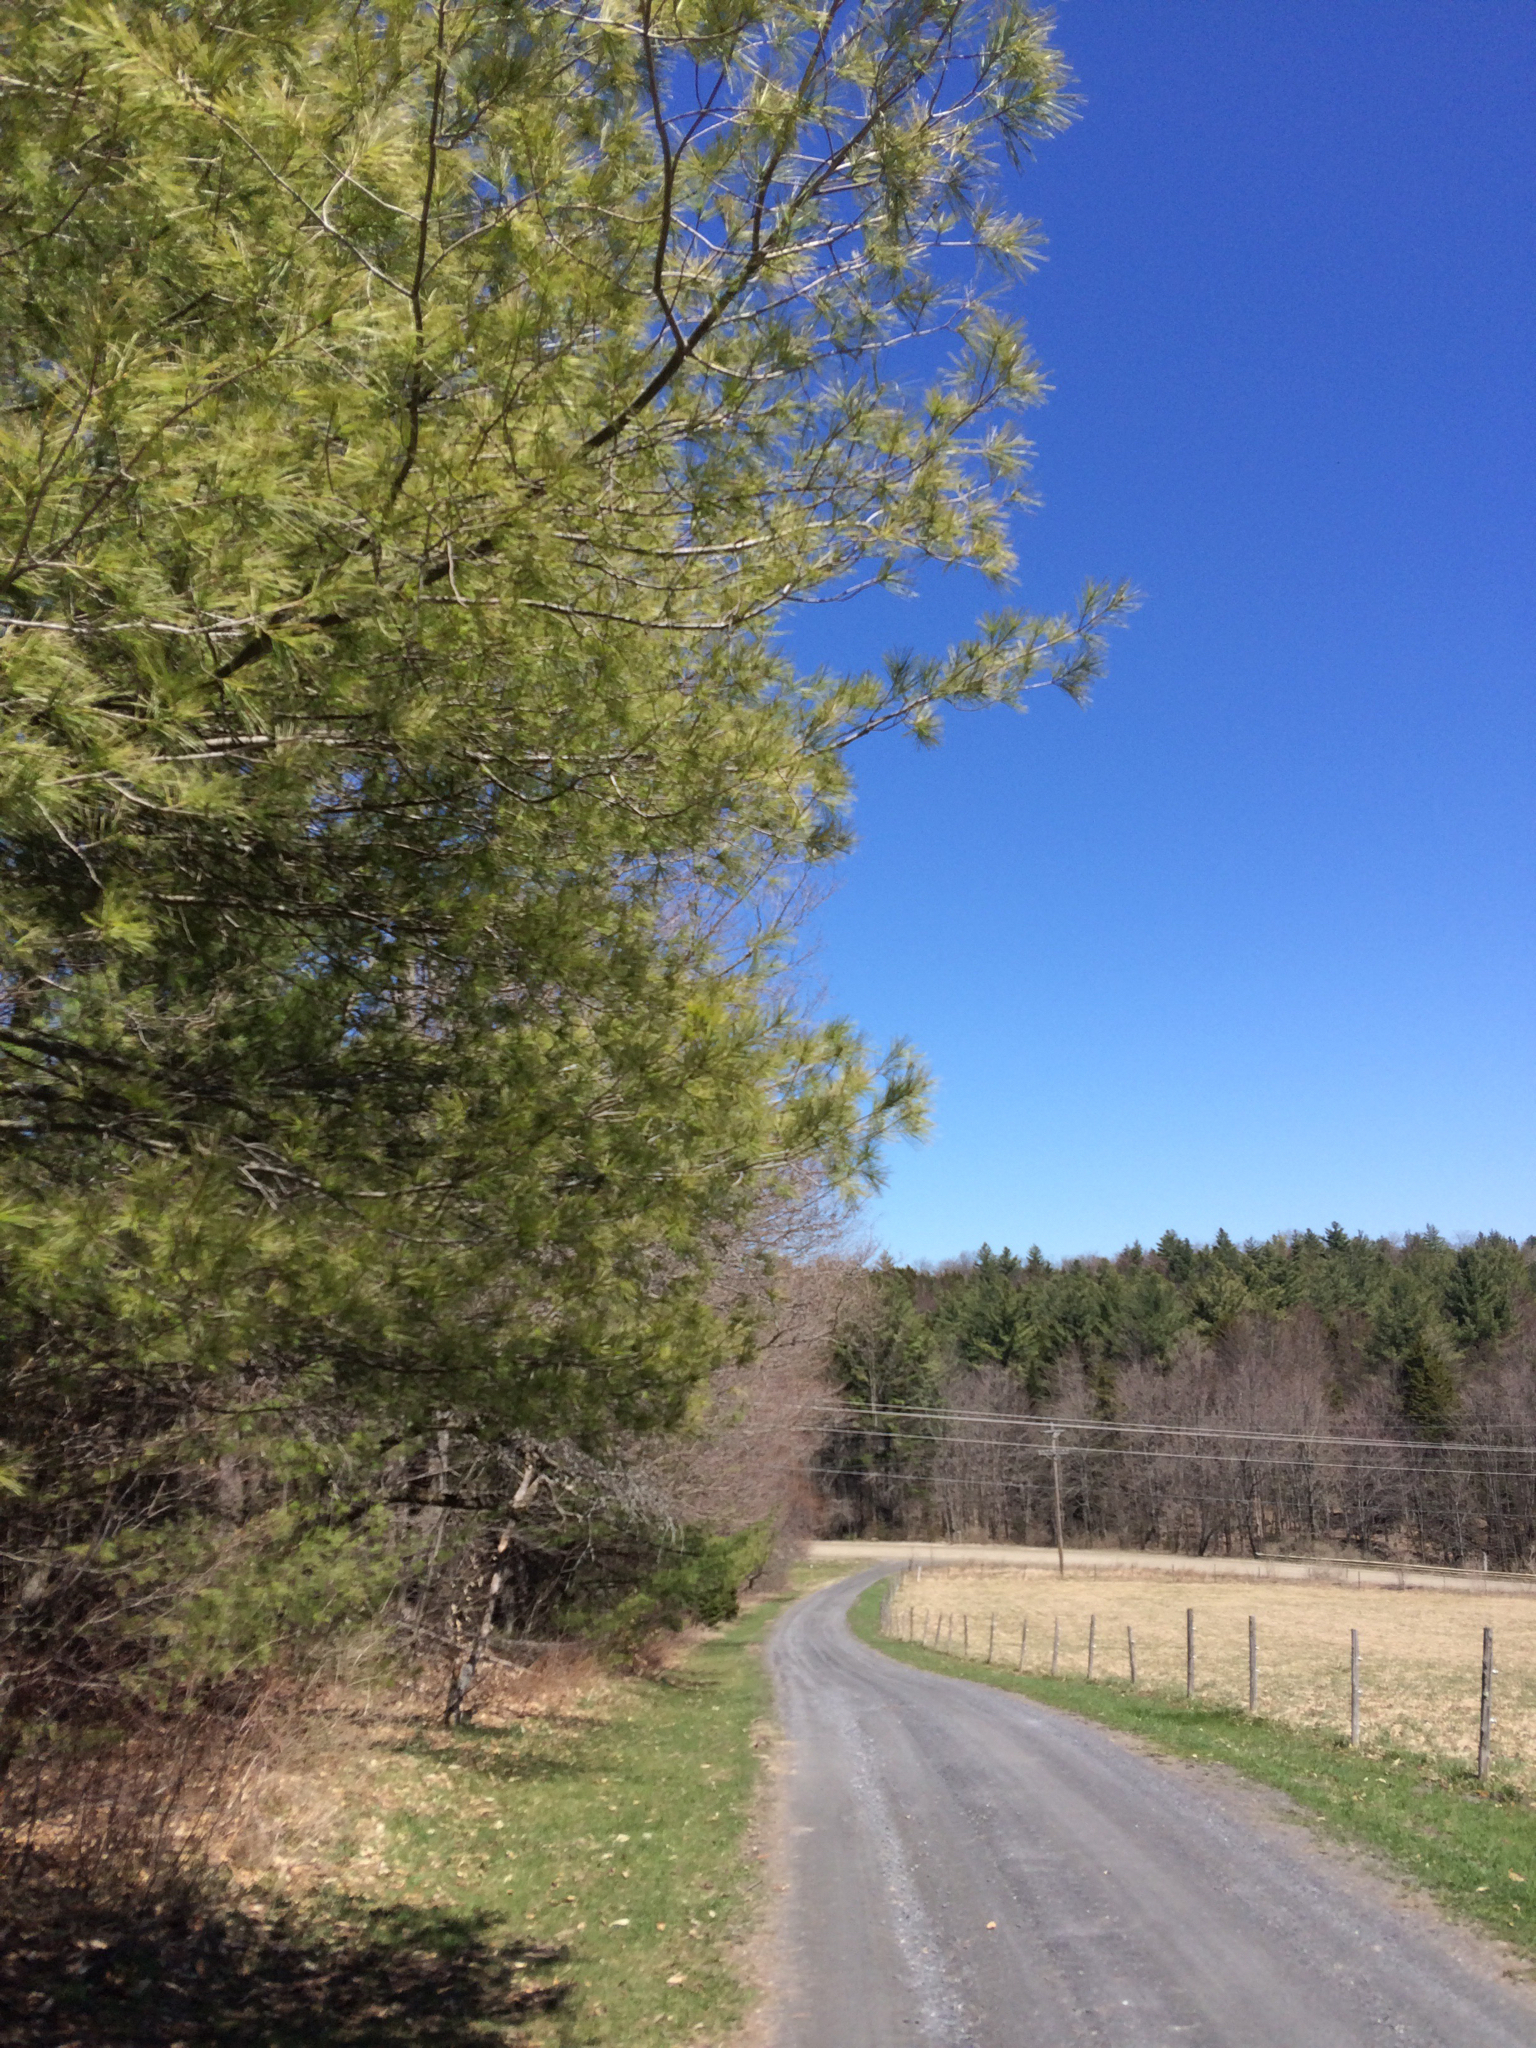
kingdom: Plantae
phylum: Tracheophyta
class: Pinopsida
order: Pinales
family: Pinaceae
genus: Pinus
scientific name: Pinus strobus
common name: Weymouth pine
